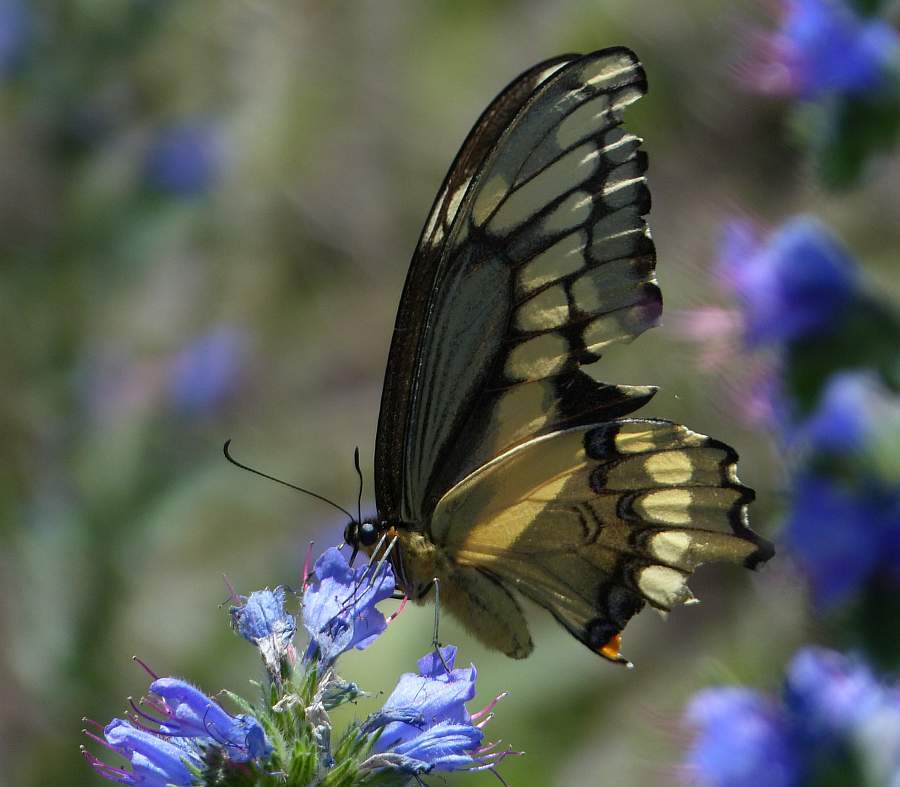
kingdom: Animalia
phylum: Arthropoda
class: Insecta
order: Lepidoptera
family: Papilionidae
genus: Papilio
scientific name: Papilio cresphontes
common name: Giant swallowtail
